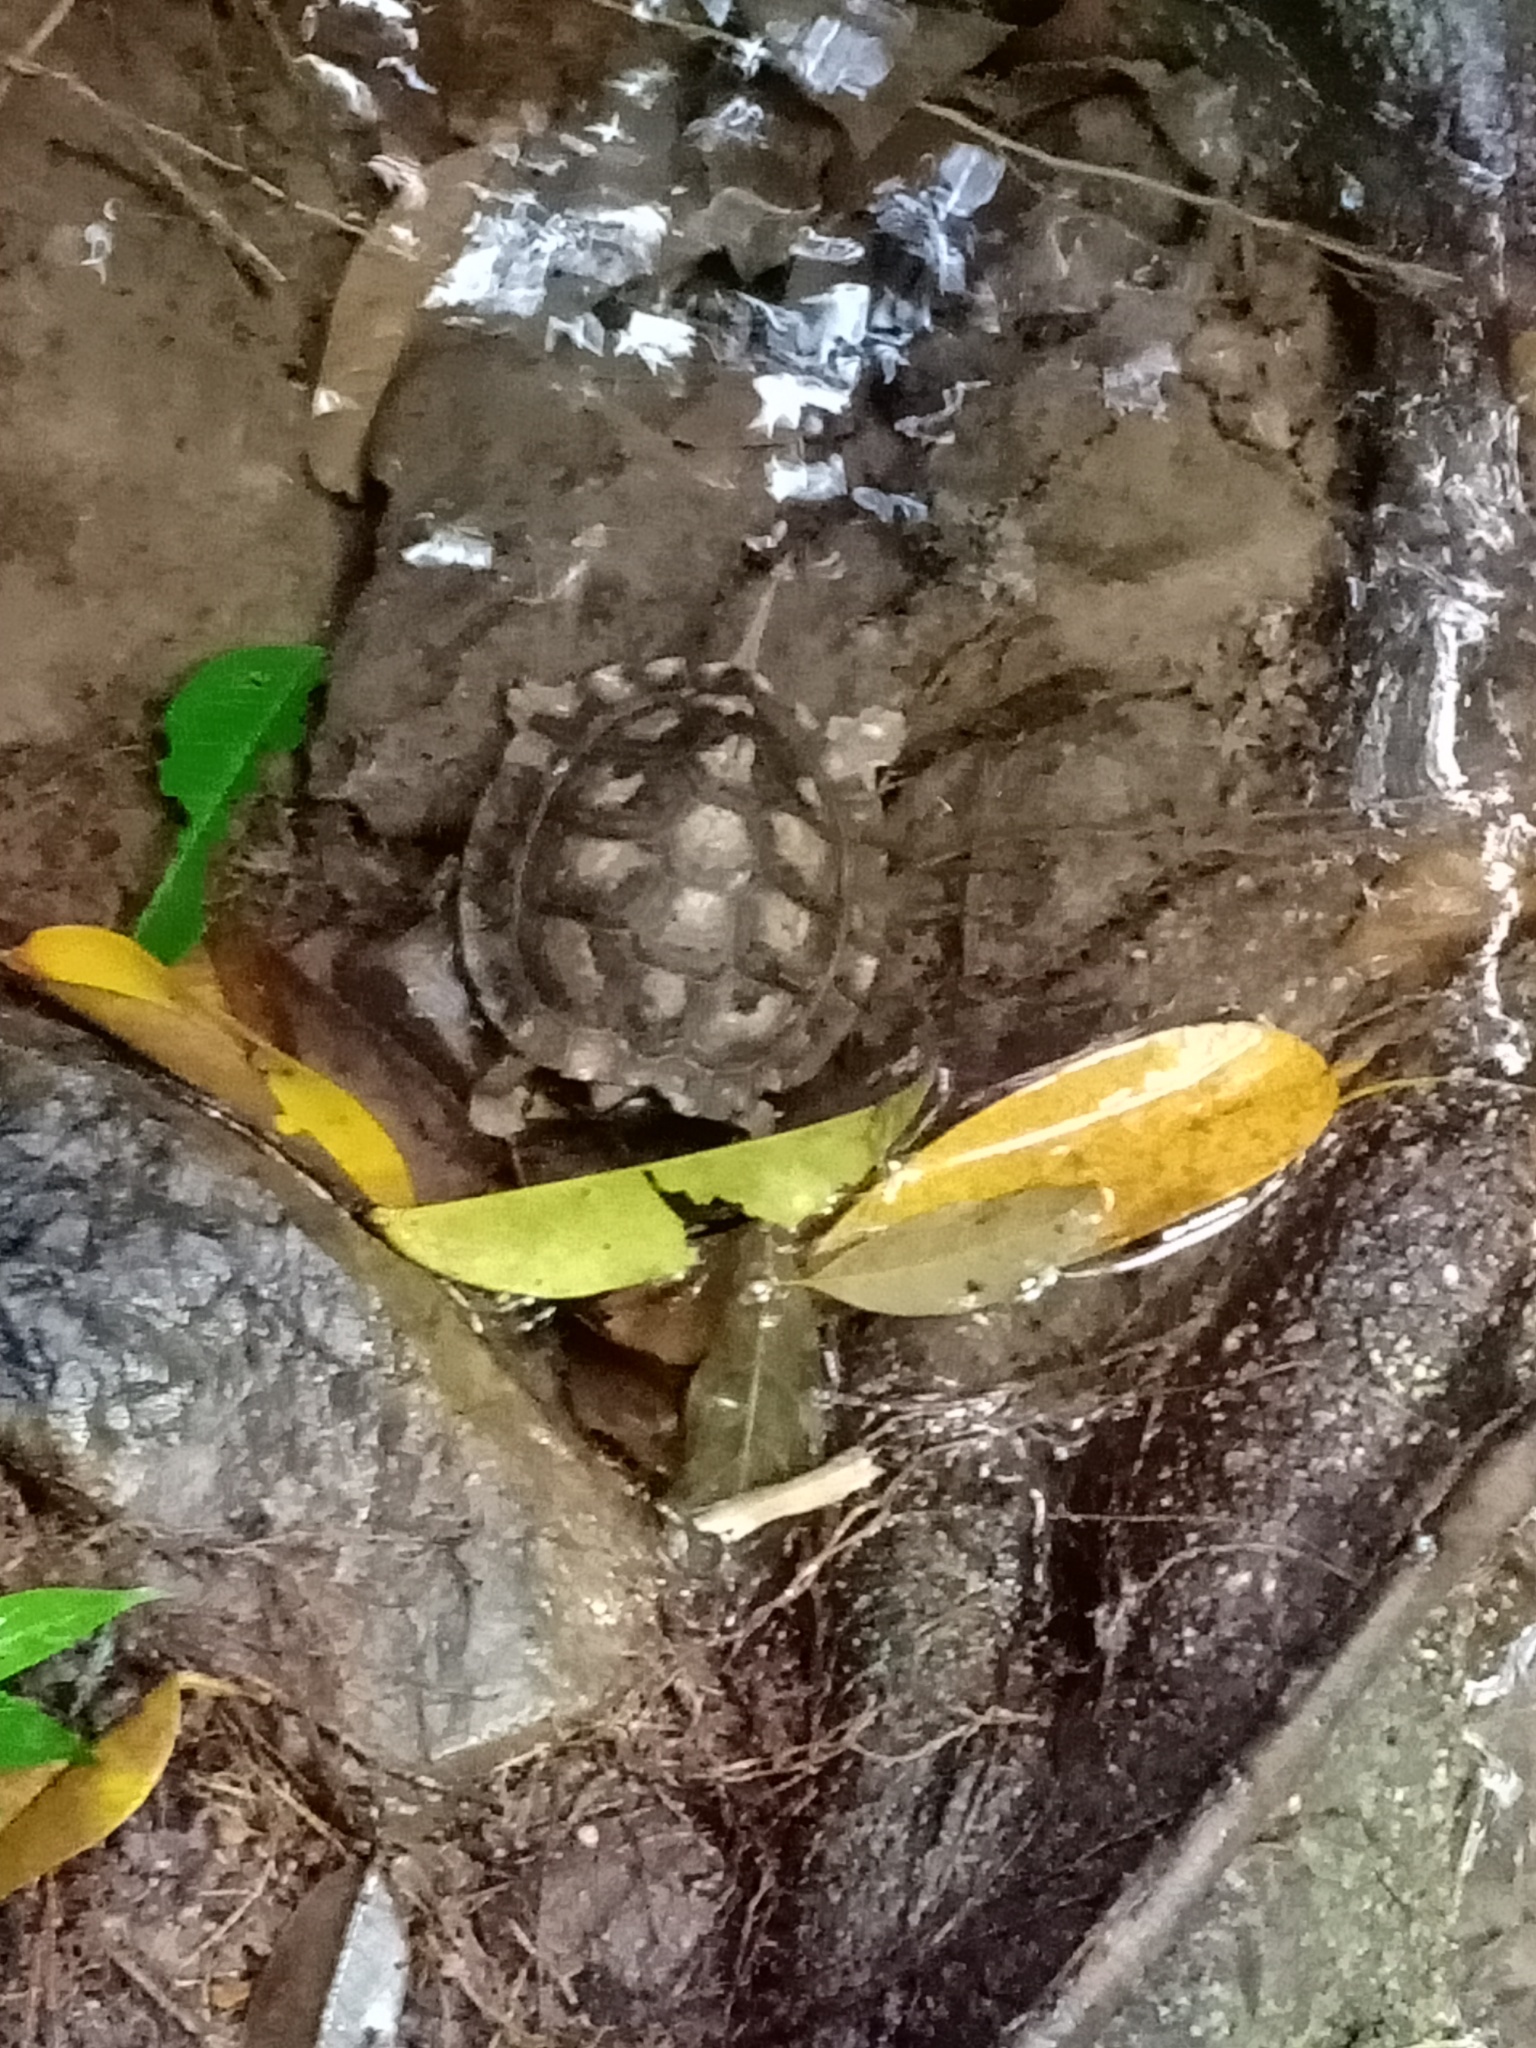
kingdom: Animalia
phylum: Chordata
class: Testudines
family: Geoemydidae
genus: Cyclemys
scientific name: Cyclemys enigmatica
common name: Enigmatic leaf turtle
